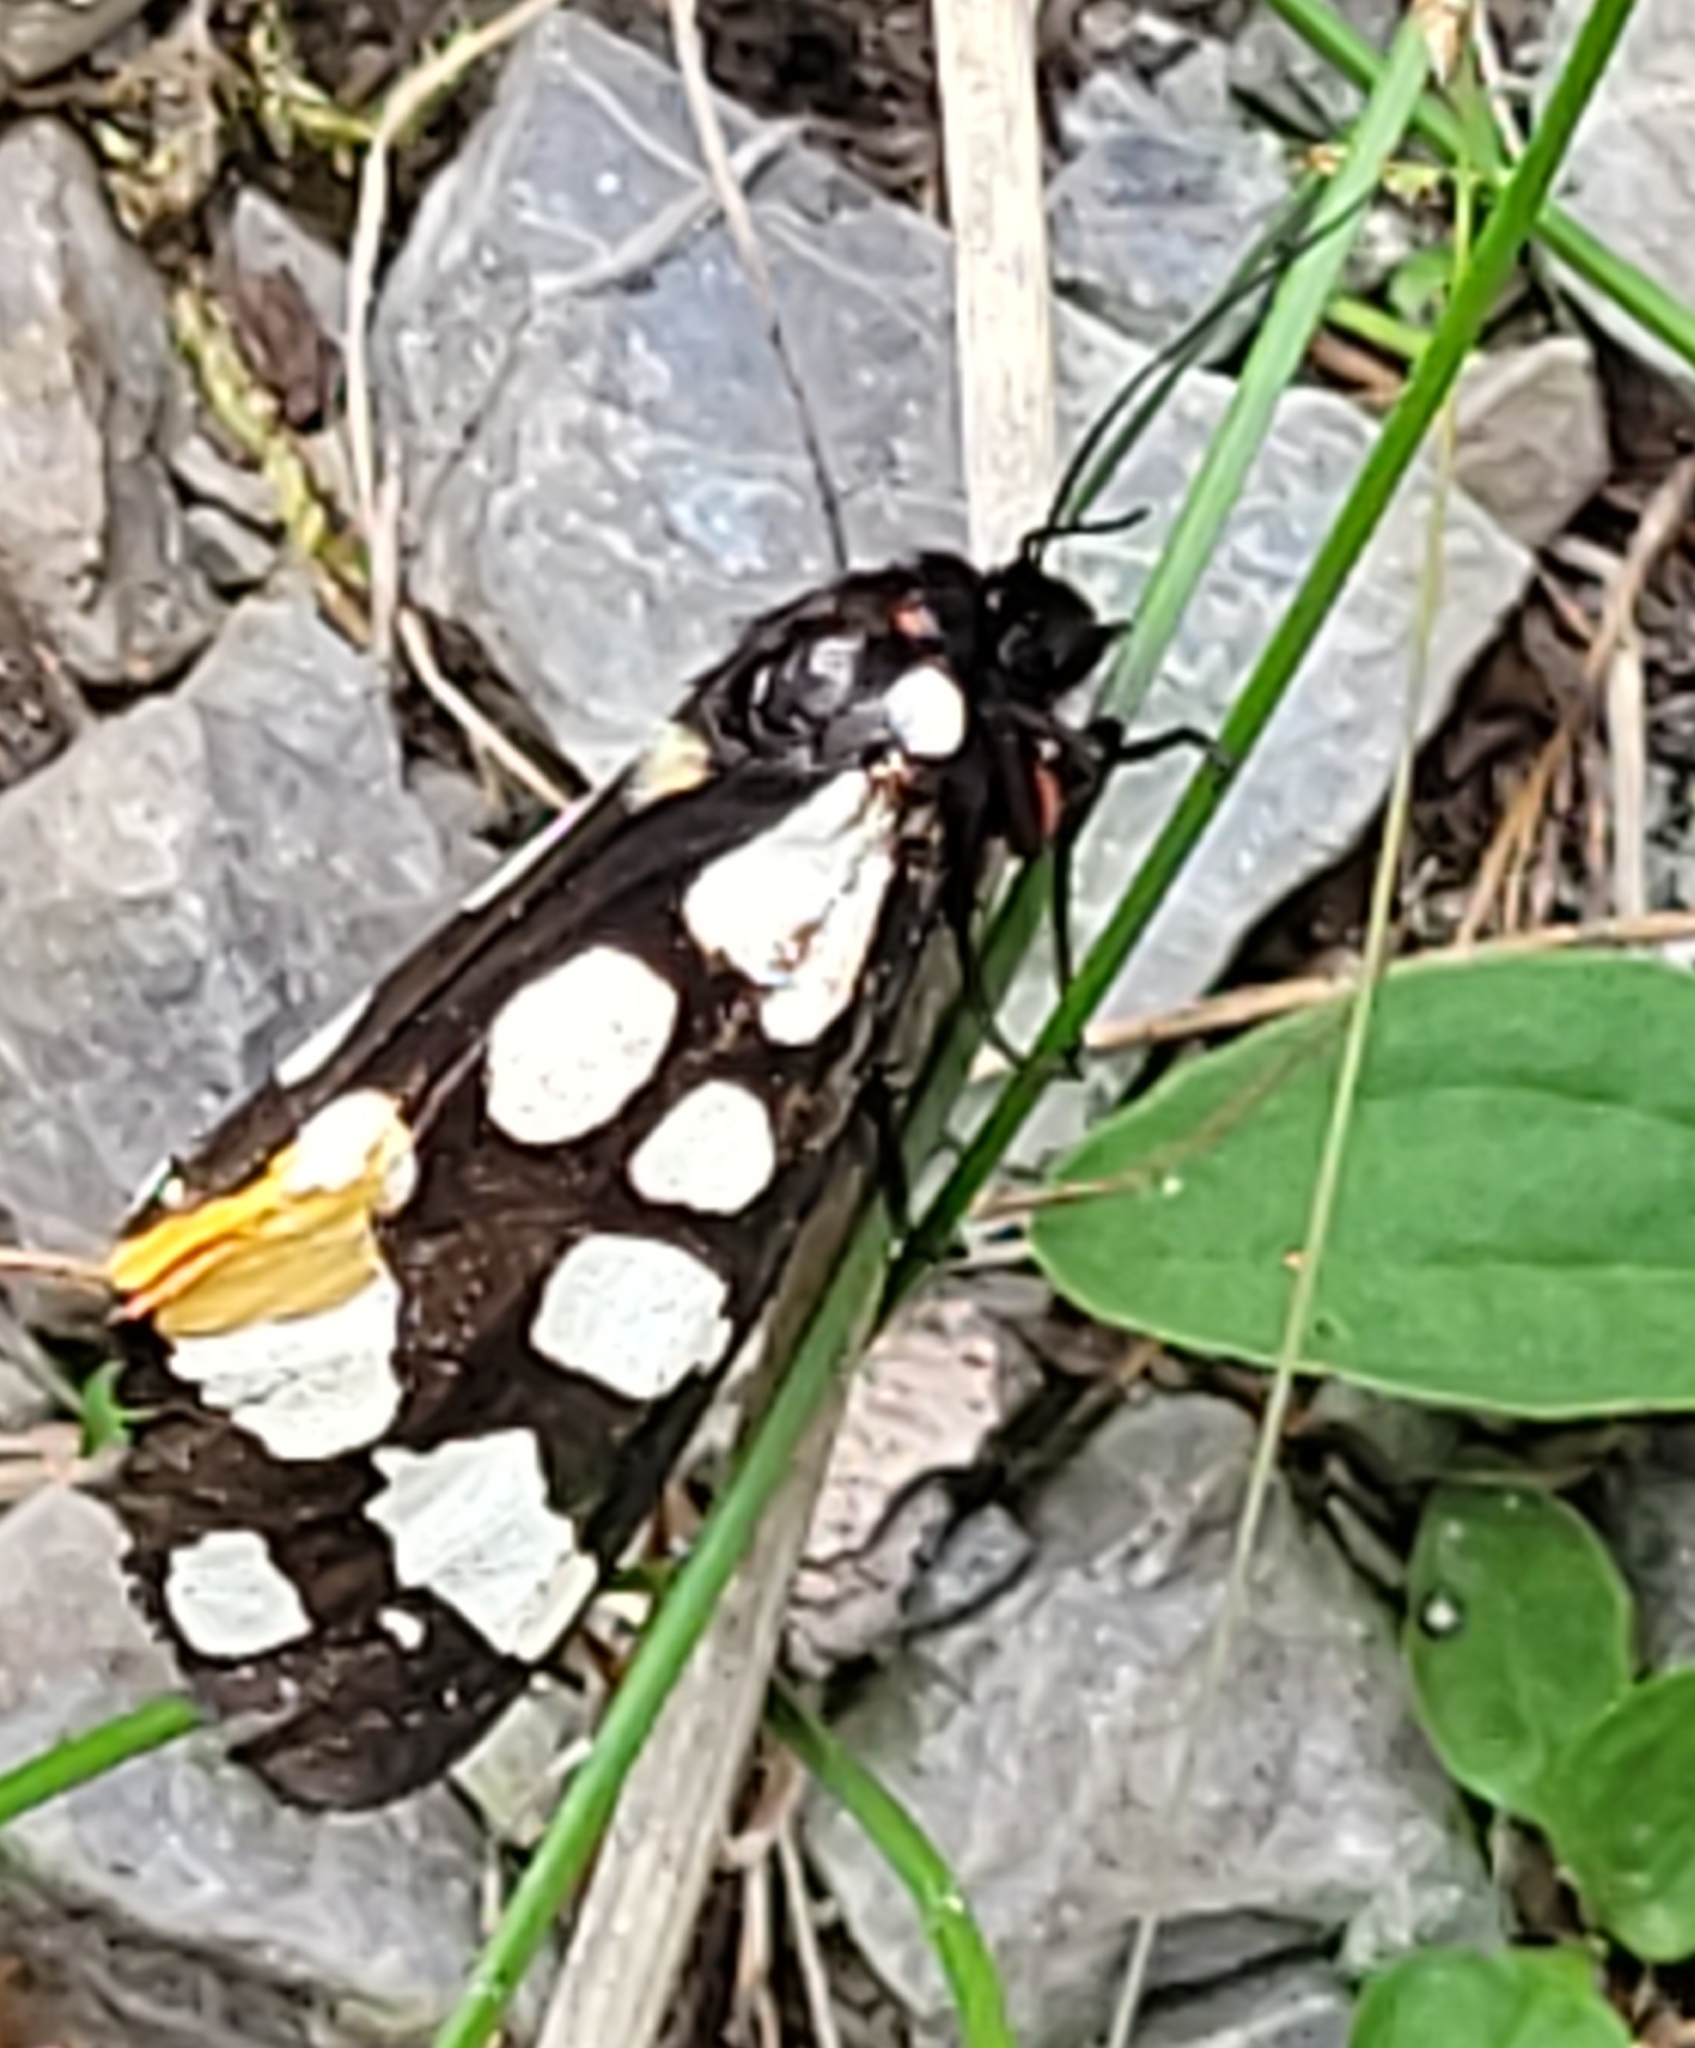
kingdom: Animalia
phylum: Arthropoda
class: Insecta
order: Lepidoptera
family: Erebidae
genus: Epicallia
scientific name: Epicallia villica
